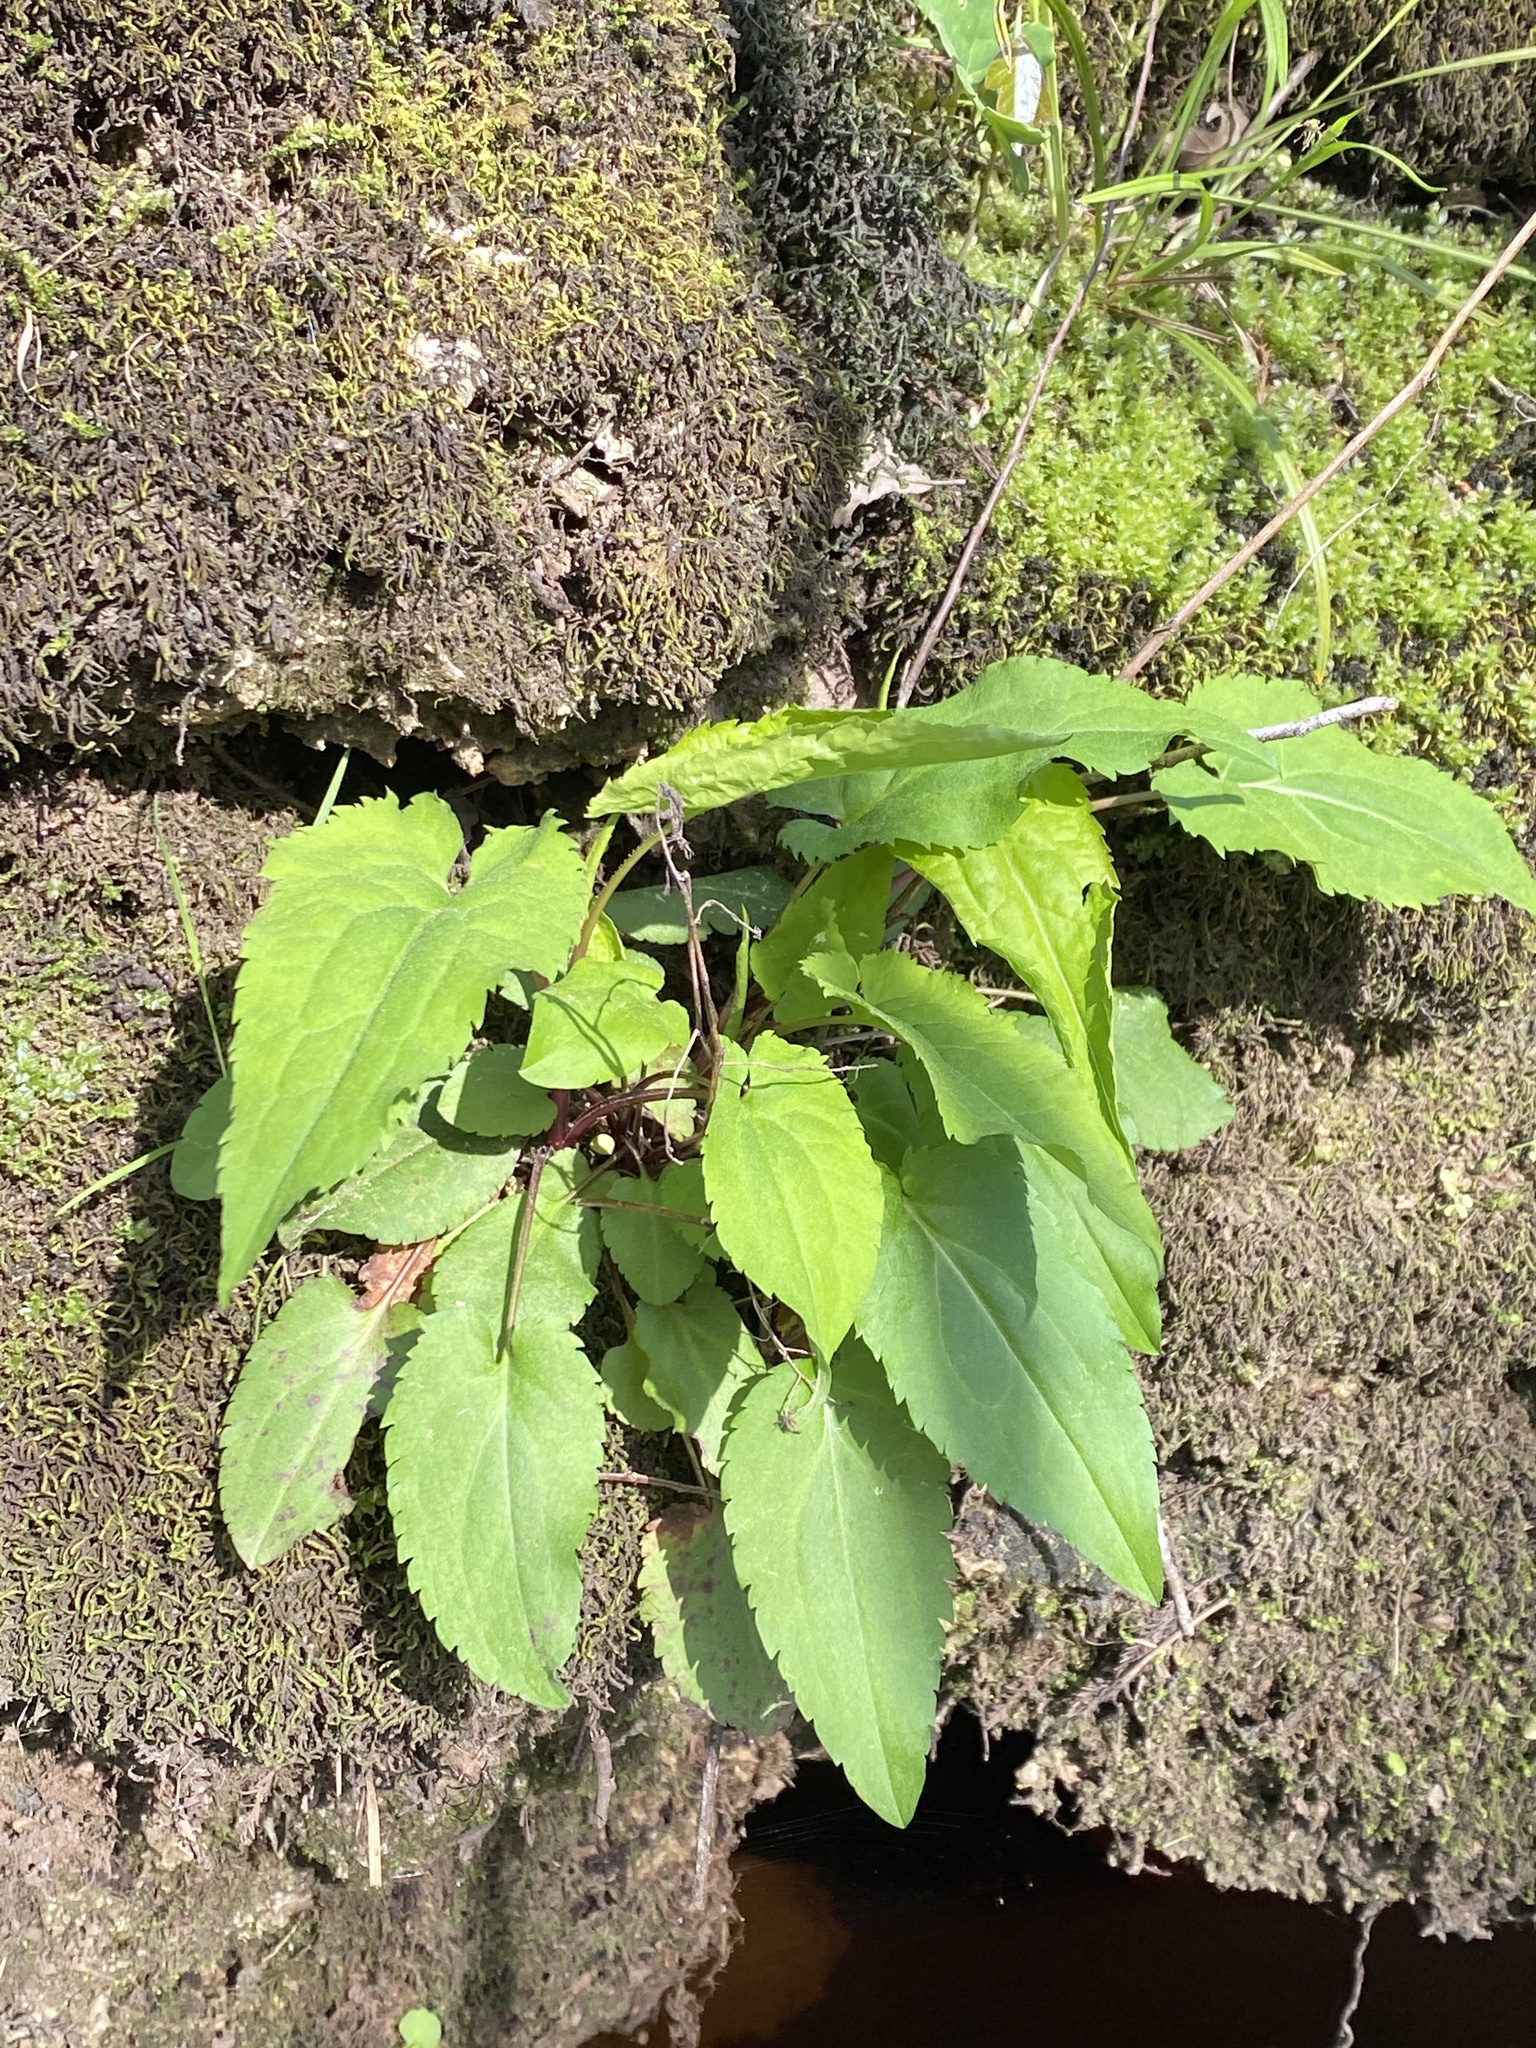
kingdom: Plantae
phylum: Tracheophyta
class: Magnoliopsida
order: Asterales
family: Asteraceae
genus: Symphyotrichum
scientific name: Symphyotrichum cordifolium
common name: Beeweed
